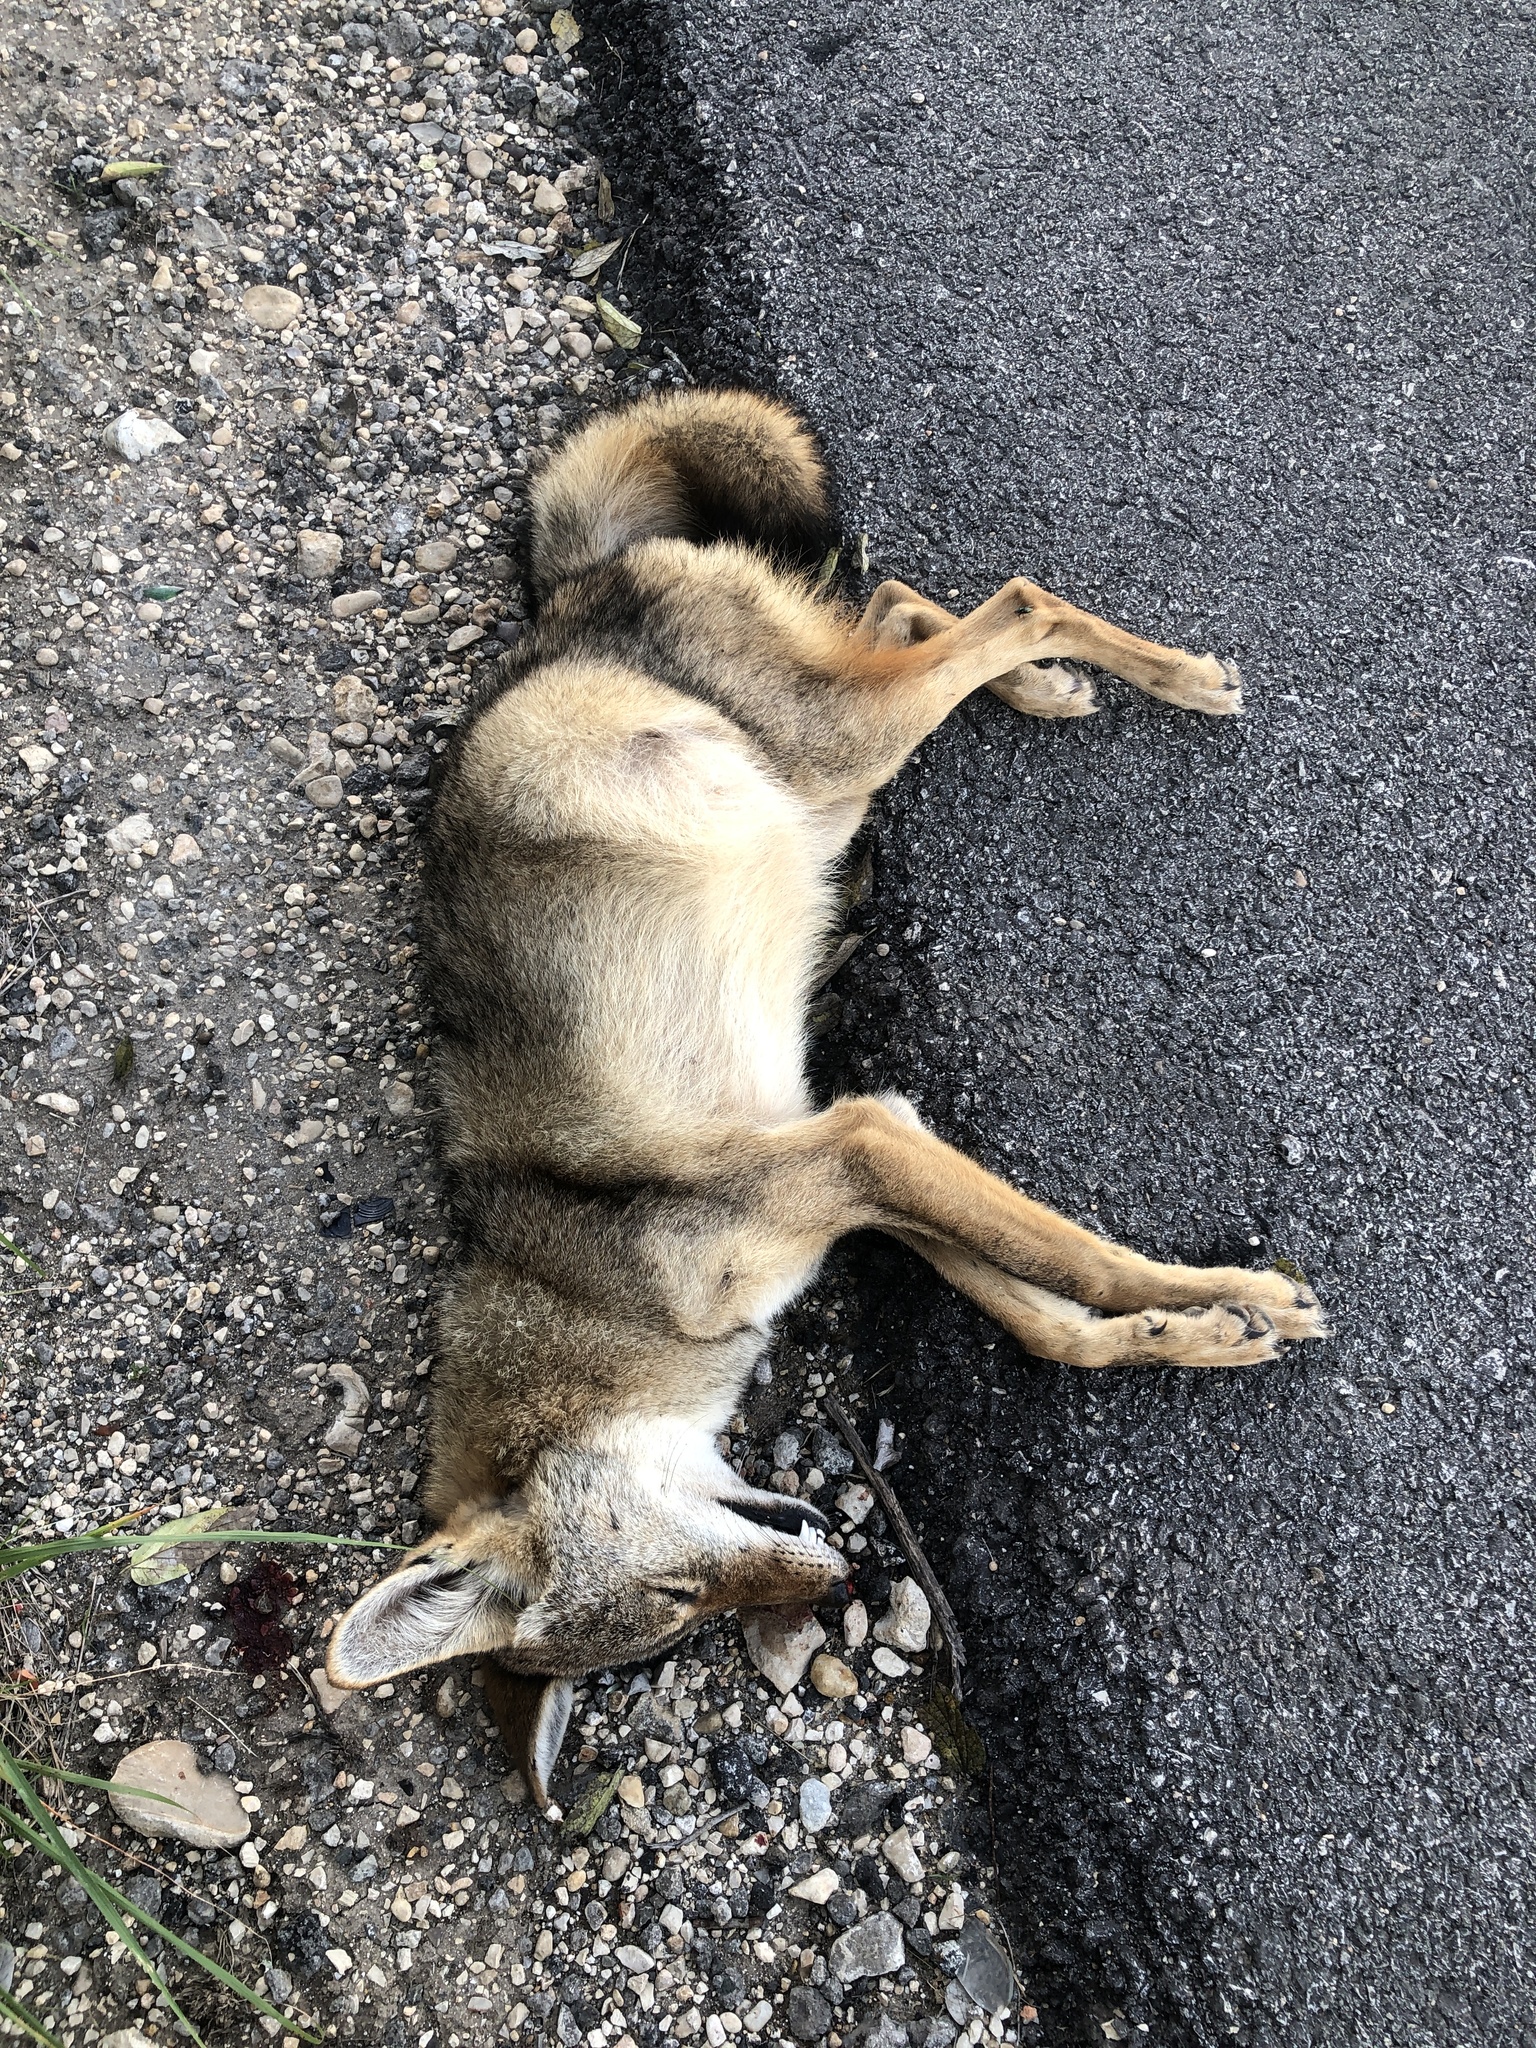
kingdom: Animalia
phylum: Chordata
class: Mammalia
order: Carnivora
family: Canidae
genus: Canis
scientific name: Canis latrans
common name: Coyote
